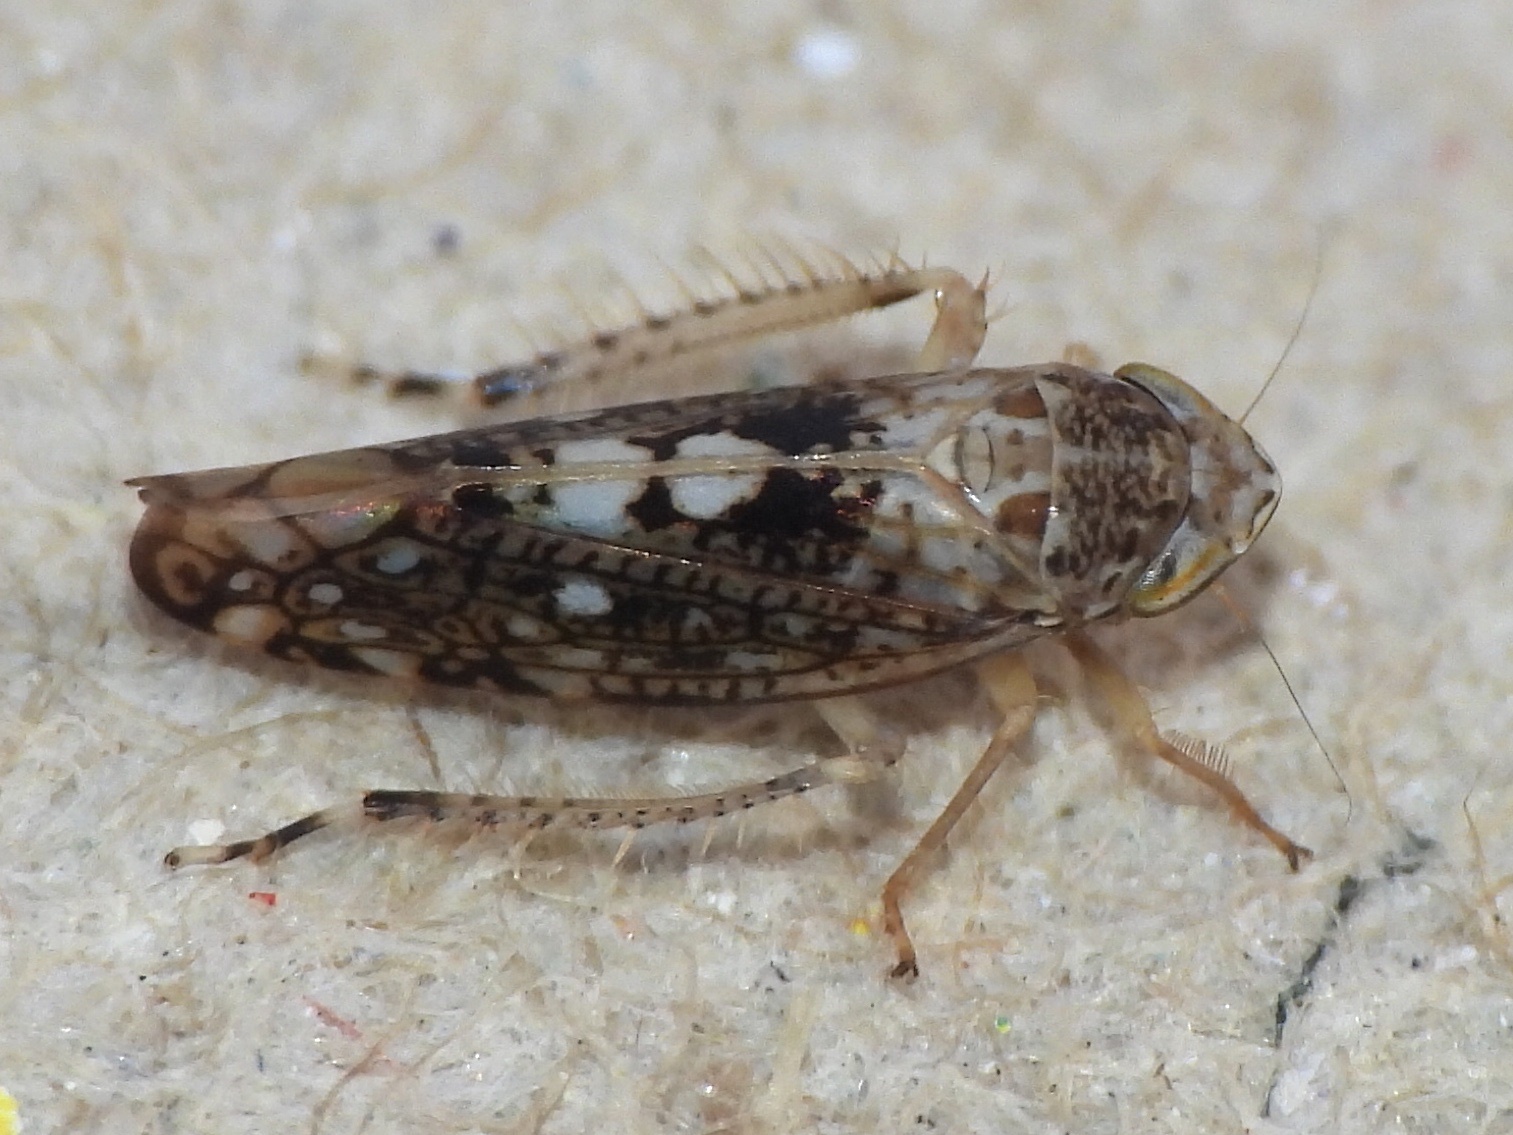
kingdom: Animalia
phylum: Arthropoda
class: Insecta
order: Hemiptera
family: Cicadellidae
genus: Prescottia
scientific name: Prescottia lobata
